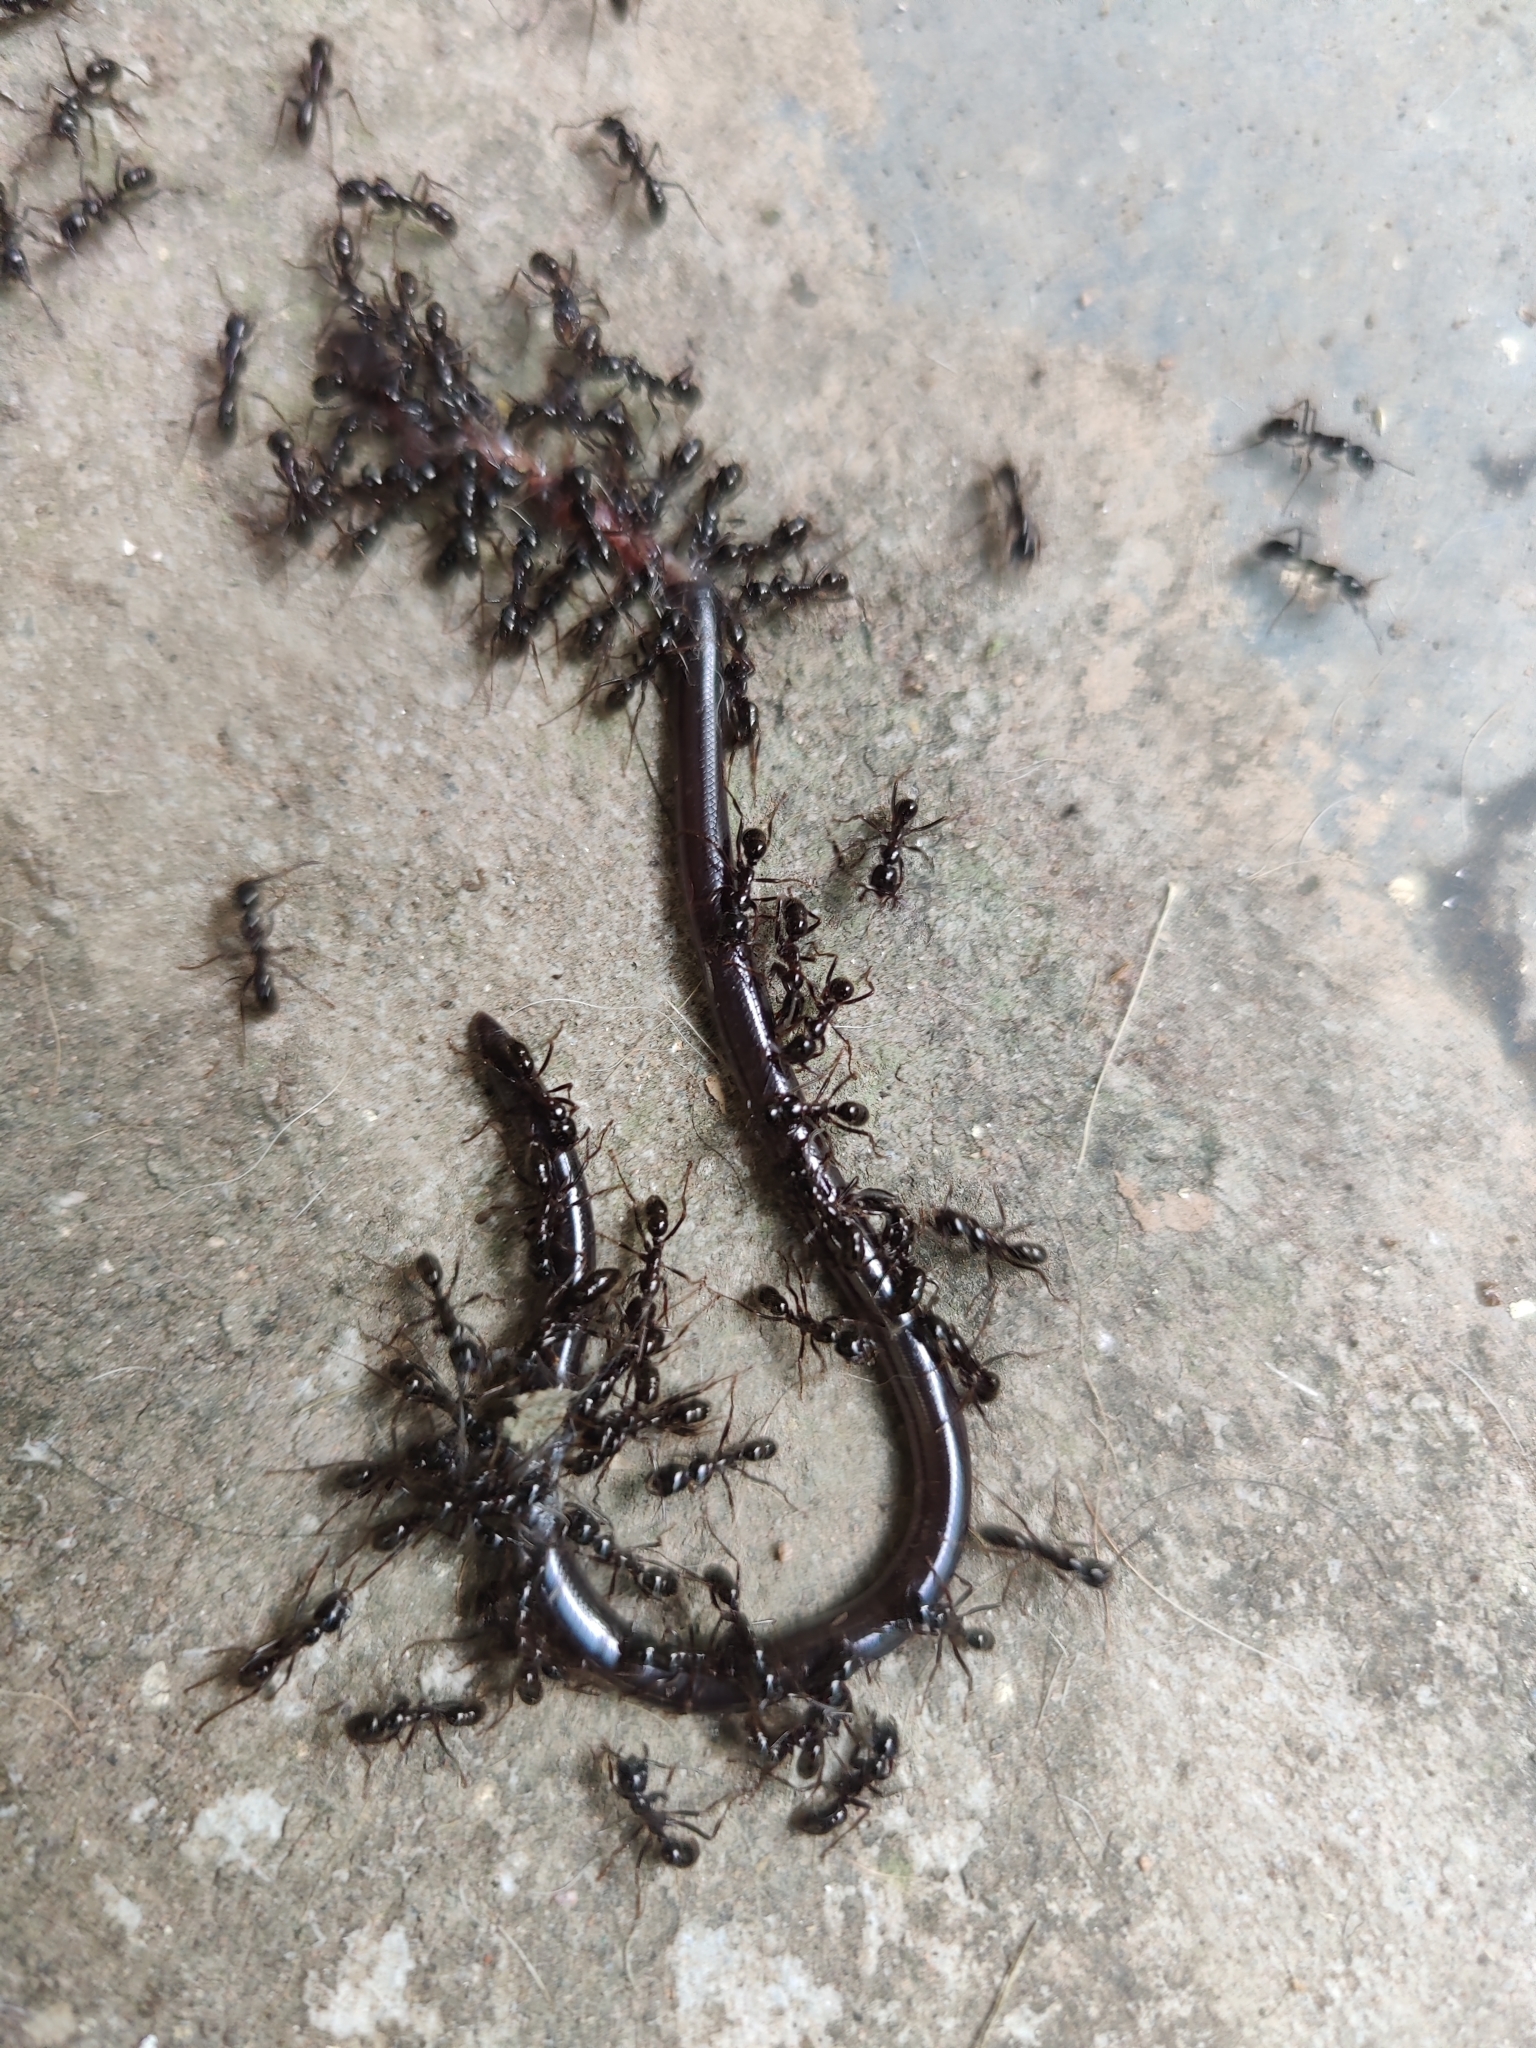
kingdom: Animalia
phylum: Chordata
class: Squamata
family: Typhlopidae
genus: Indotyphlops
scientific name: Indotyphlops braminus
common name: Brahminy blindsnake
